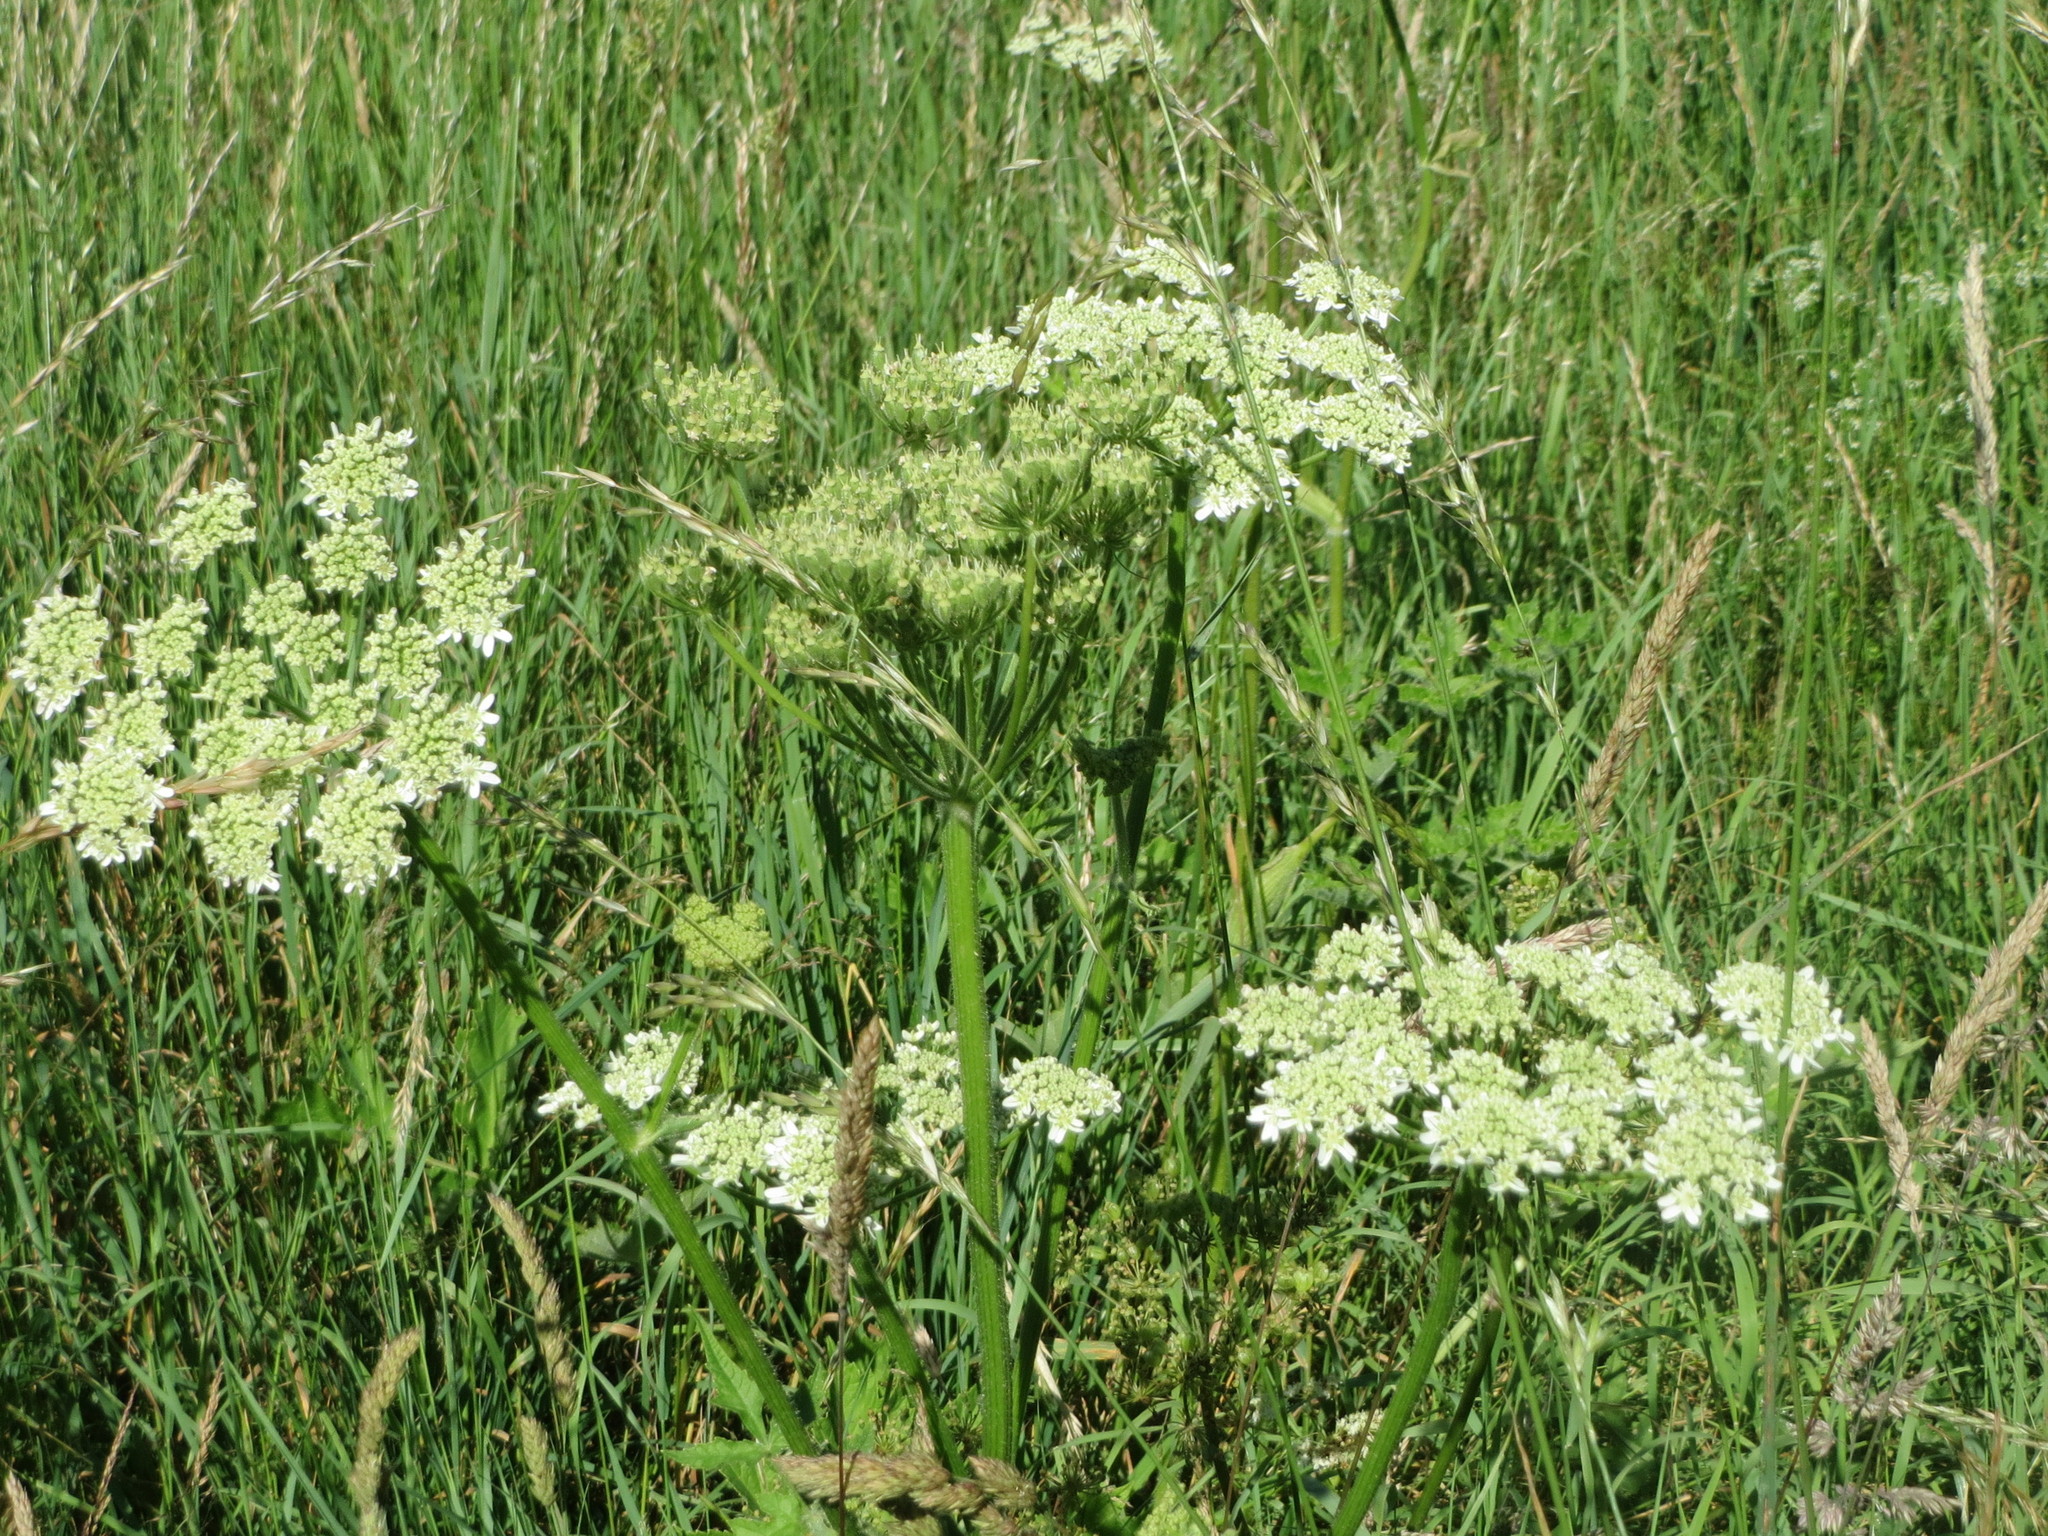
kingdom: Plantae
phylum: Tracheophyta
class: Magnoliopsida
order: Apiales
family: Apiaceae
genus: Heracleum
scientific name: Heracleum sphondylium
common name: Hogweed
